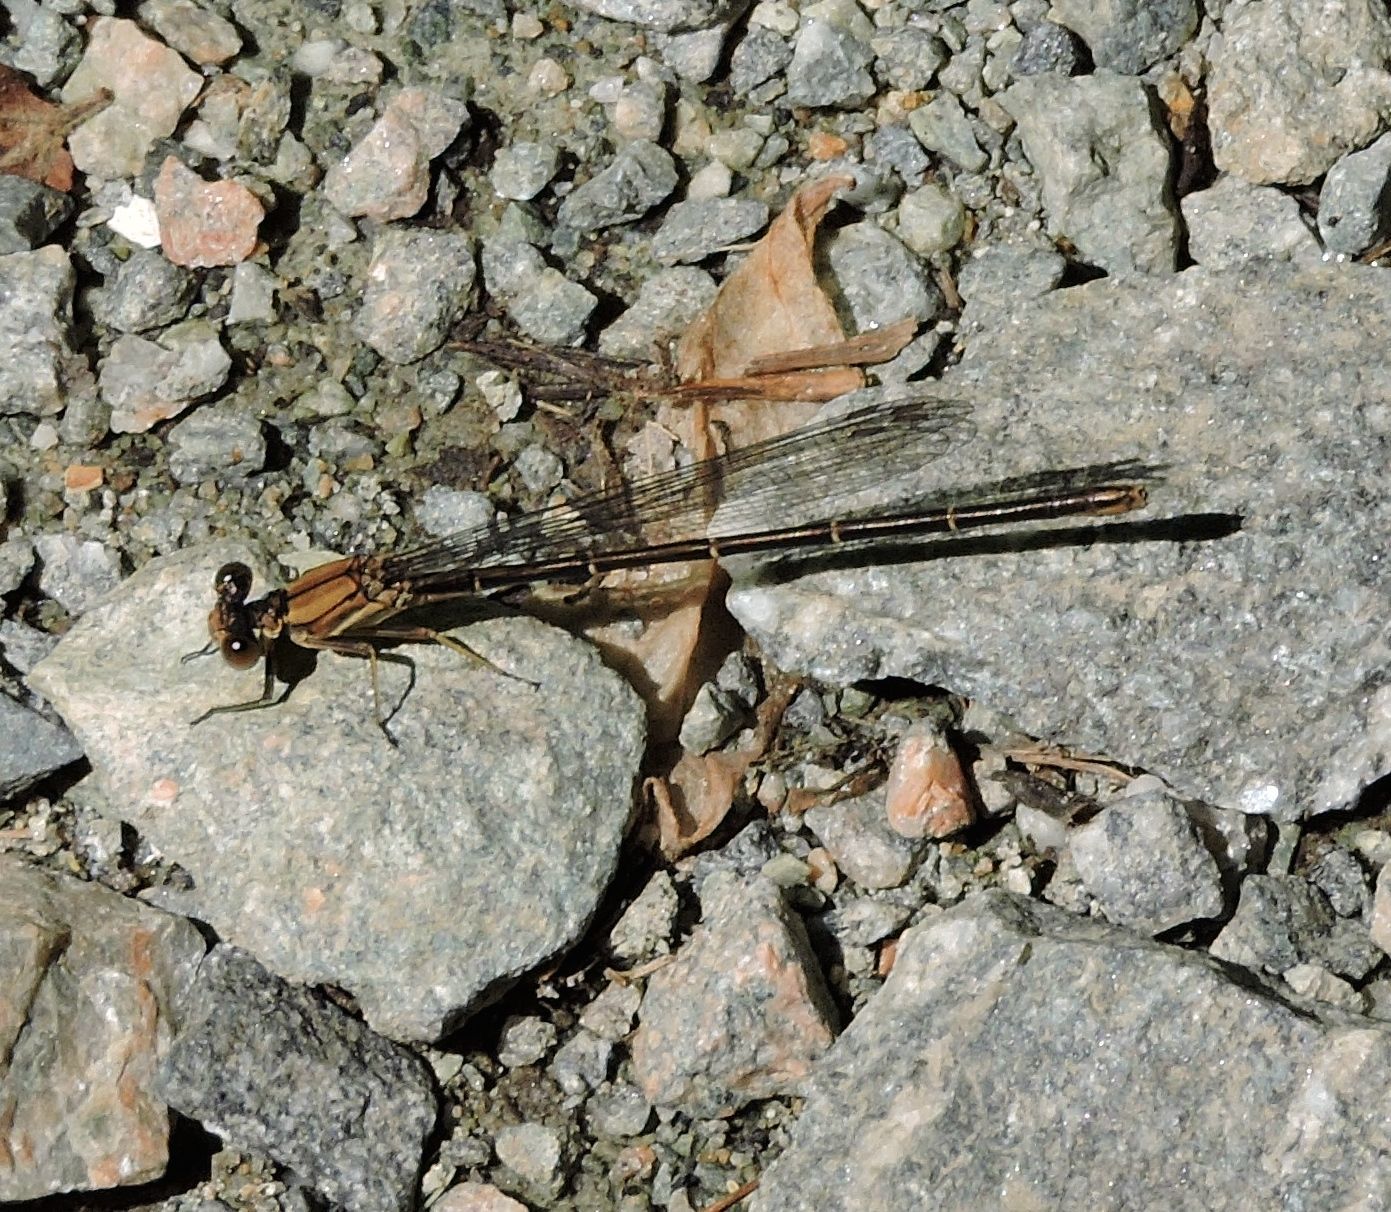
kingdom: Animalia
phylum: Arthropoda
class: Insecta
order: Odonata
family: Coenagrionidae
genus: Argia
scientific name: Argia moesta
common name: Powdered dancer
